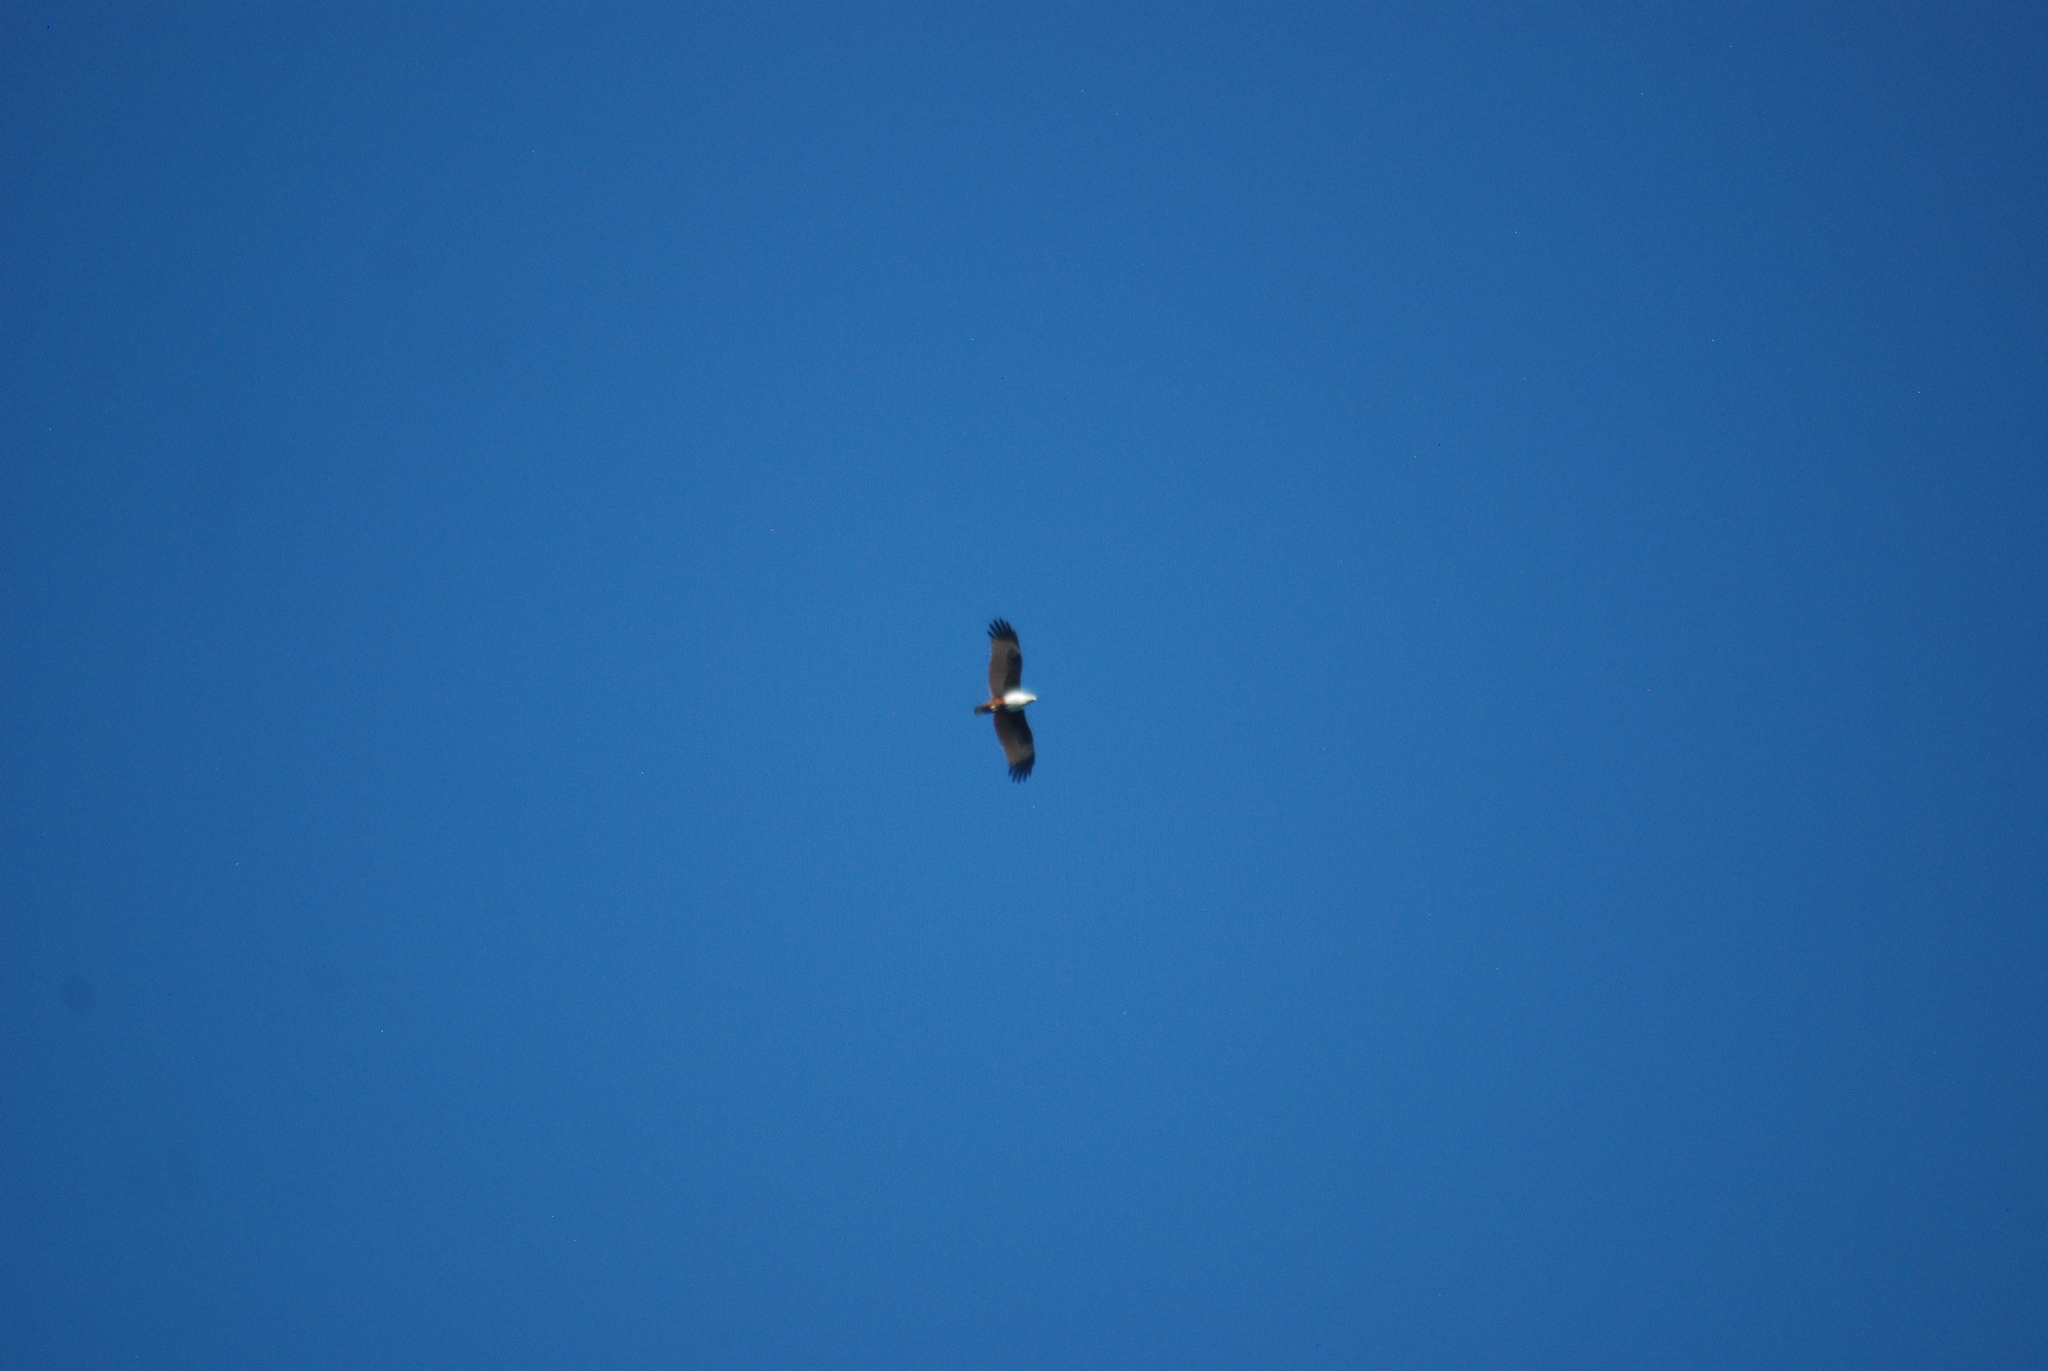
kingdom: Animalia
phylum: Chordata
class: Aves
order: Accipitriformes
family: Accipitridae
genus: Haliastur
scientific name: Haliastur indus
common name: Brahminy kite
